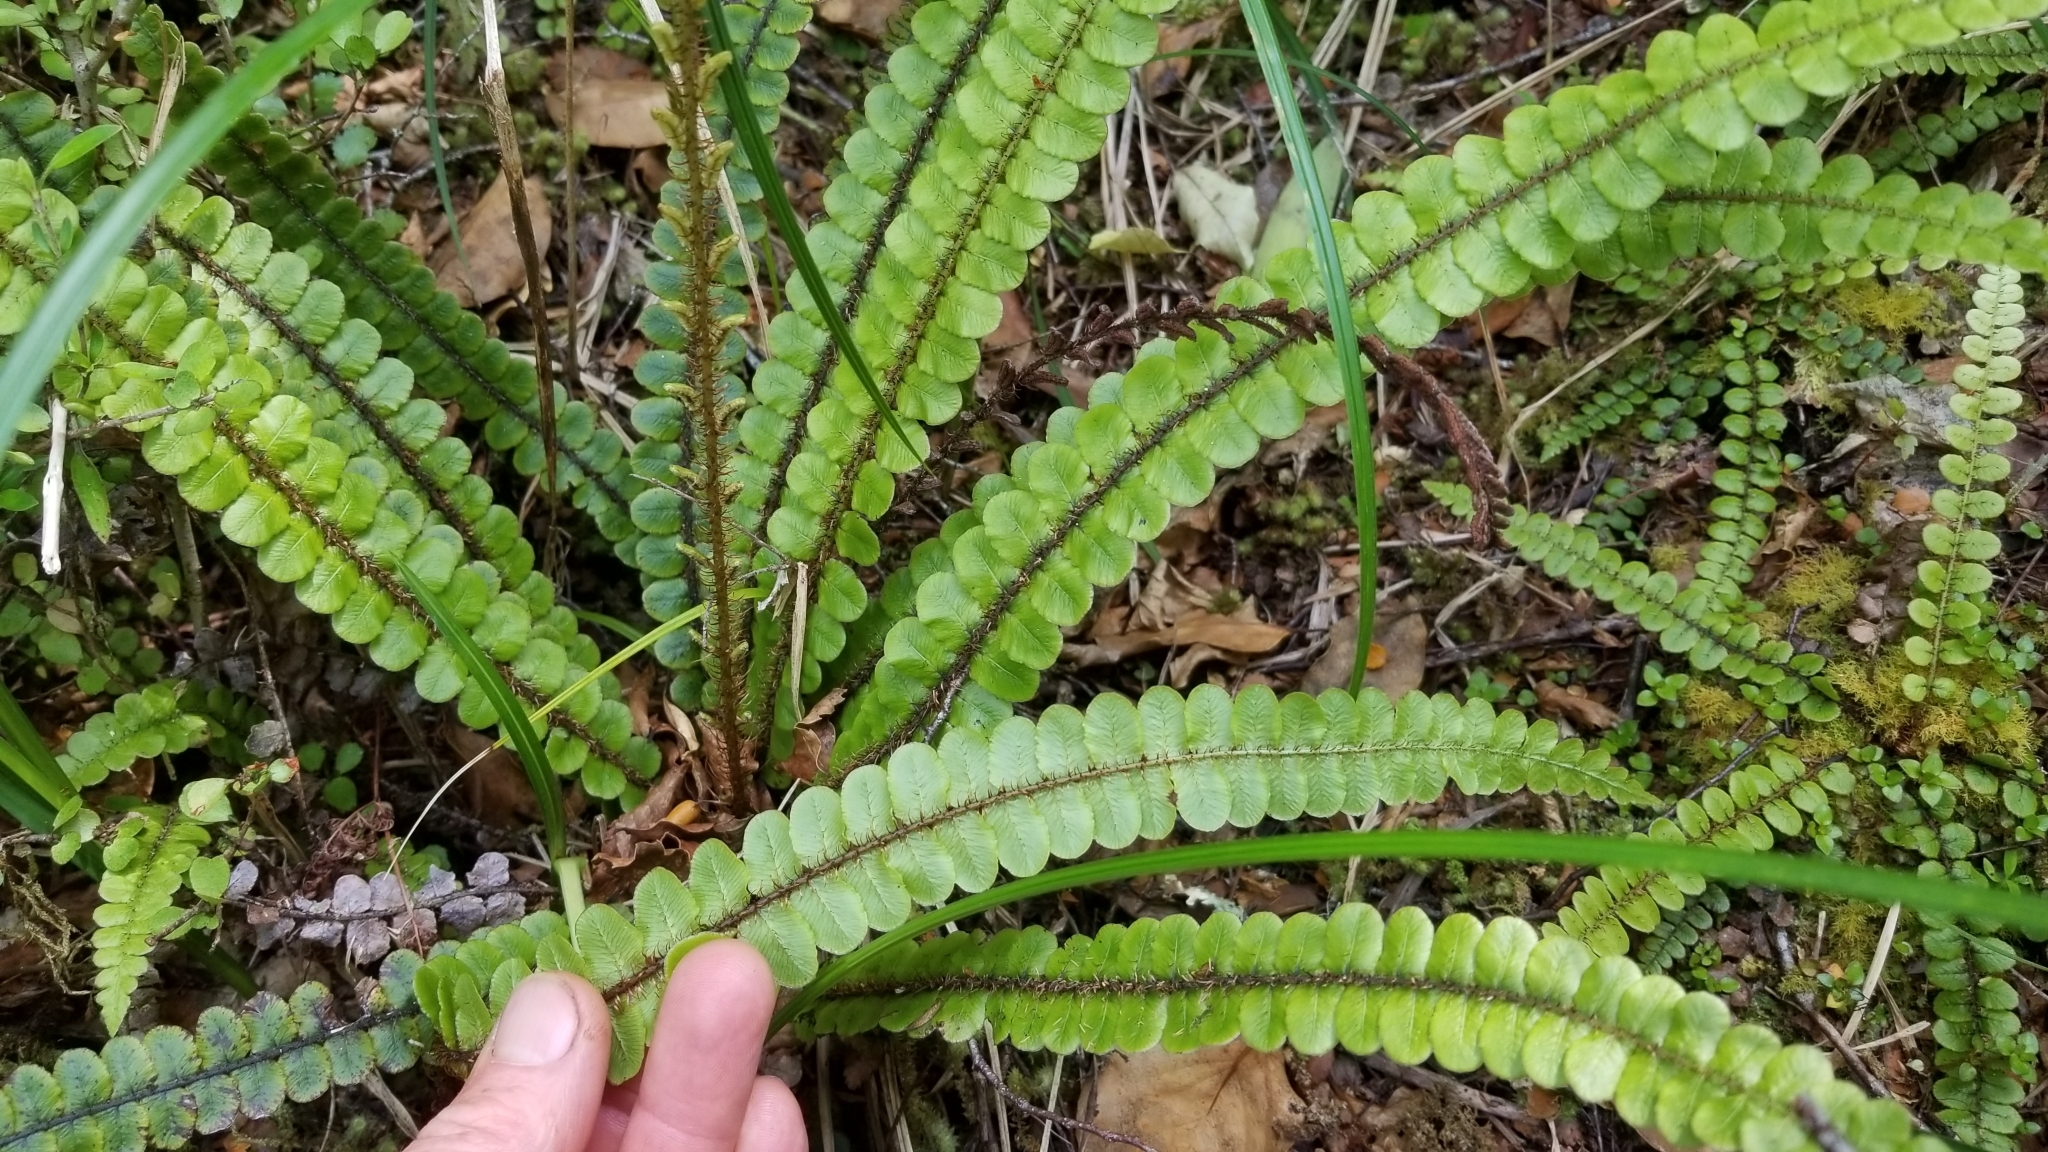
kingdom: Plantae
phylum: Tracheophyta
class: Polypodiopsida
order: Polypodiales
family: Blechnaceae
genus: Cranfillia
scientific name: Cranfillia fluviatilis
